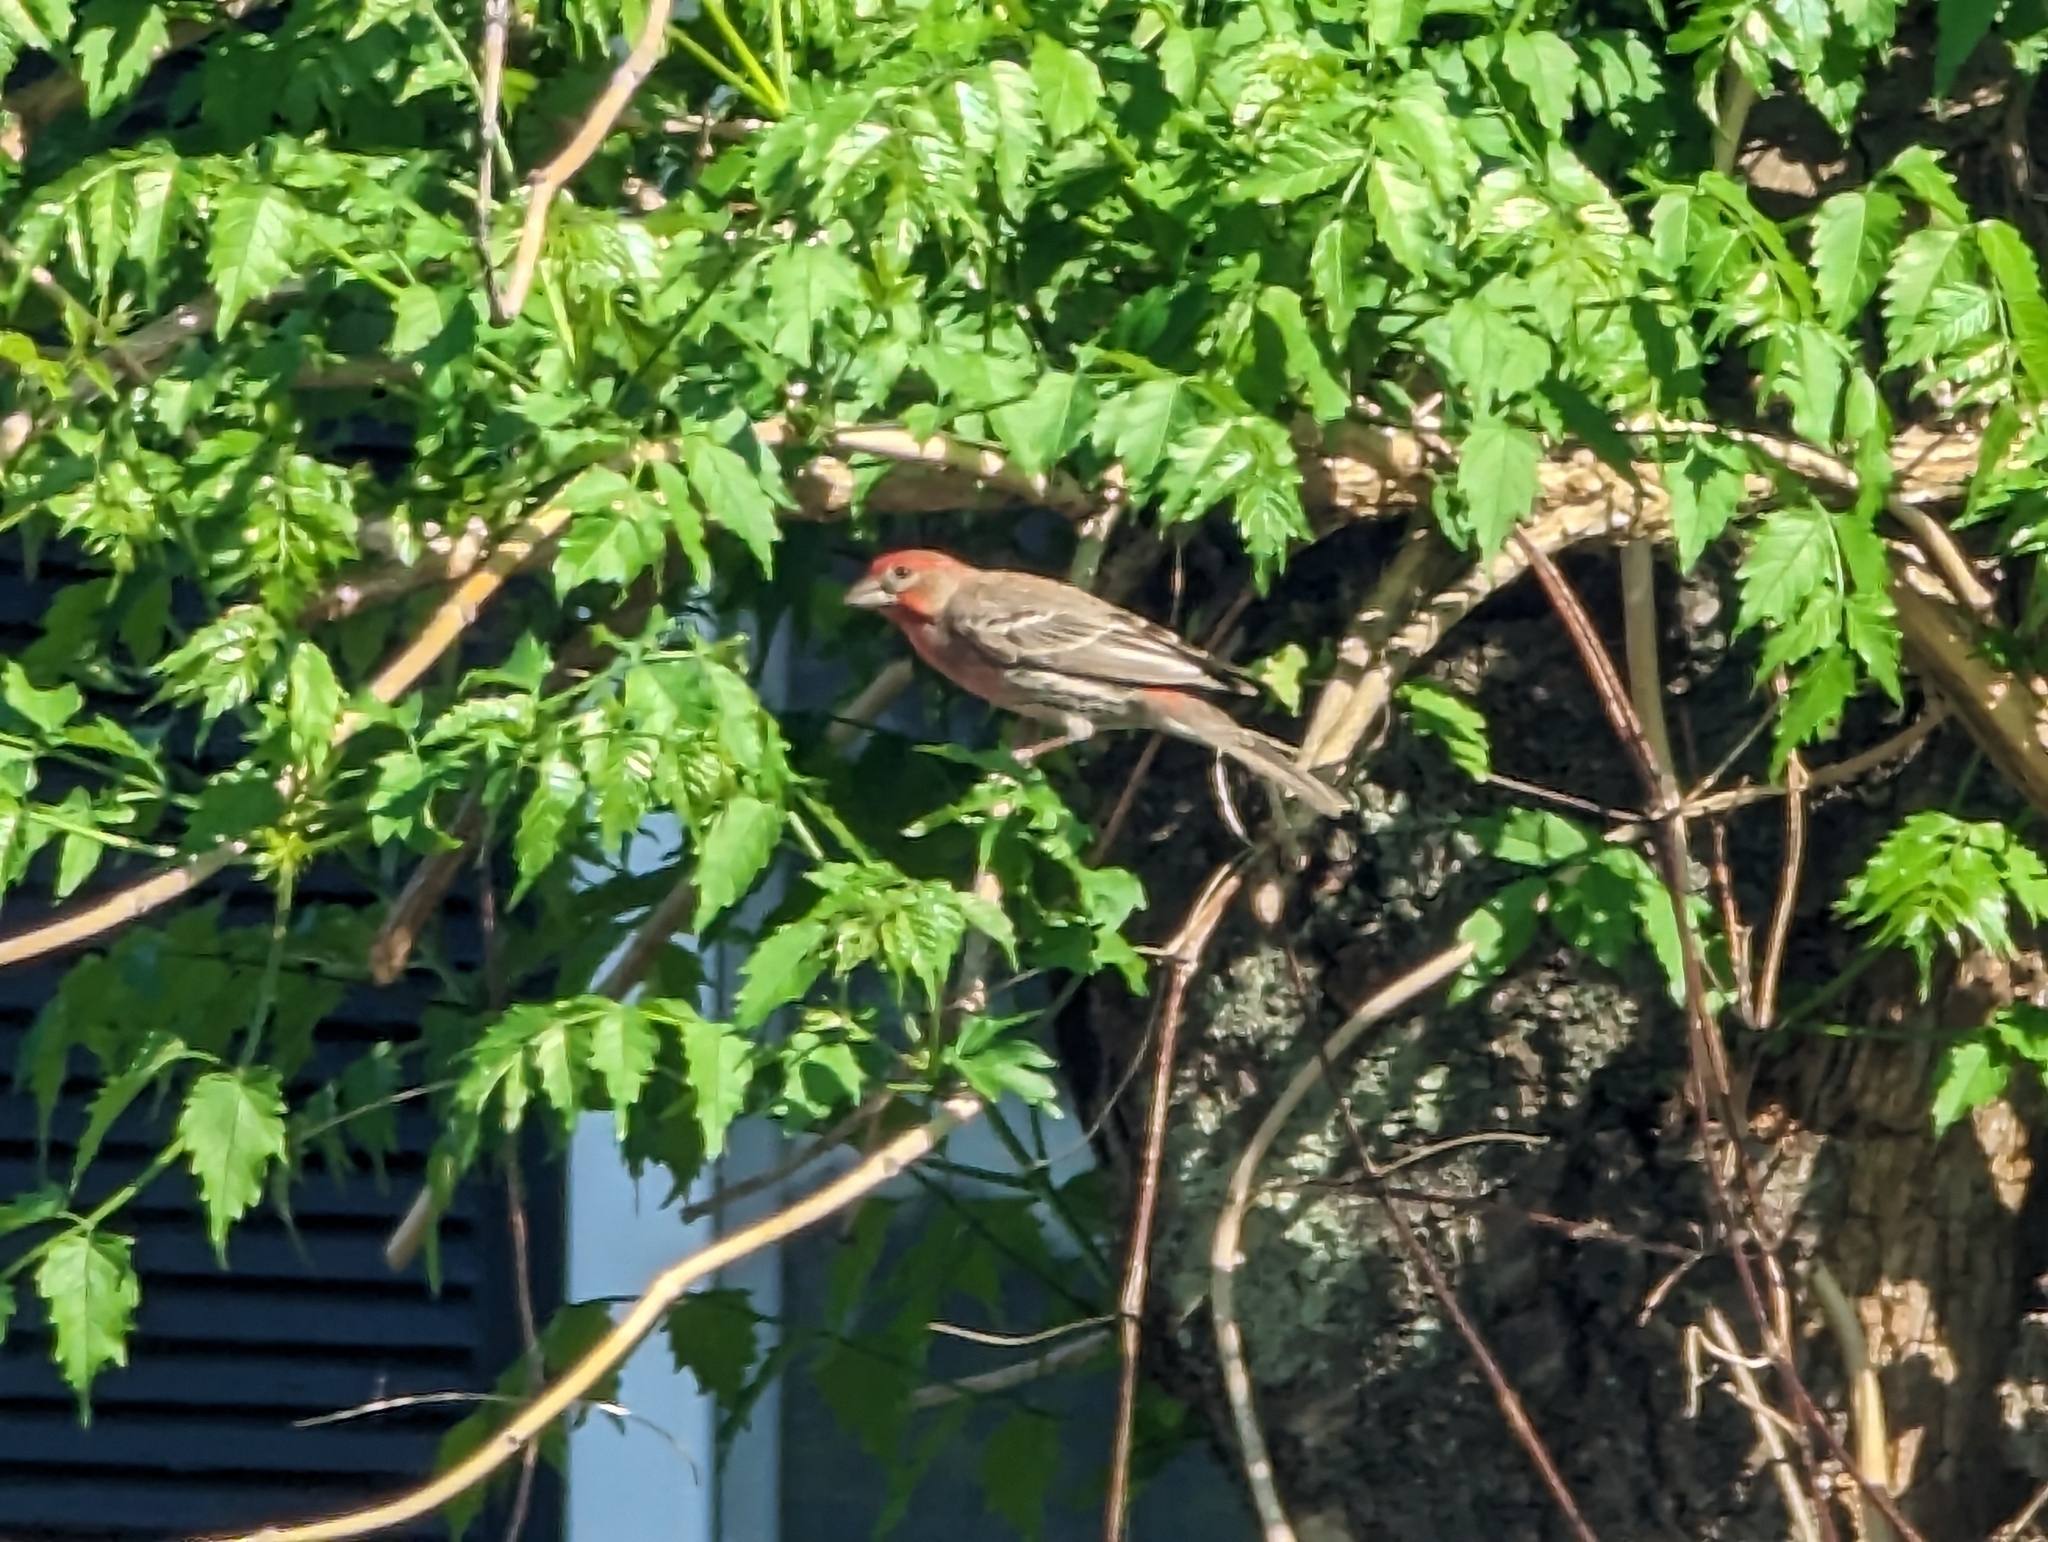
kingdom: Animalia
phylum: Chordata
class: Aves
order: Passeriformes
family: Fringillidae
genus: Haemorhous
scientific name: Haemorhous mexicanus
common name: House finch
